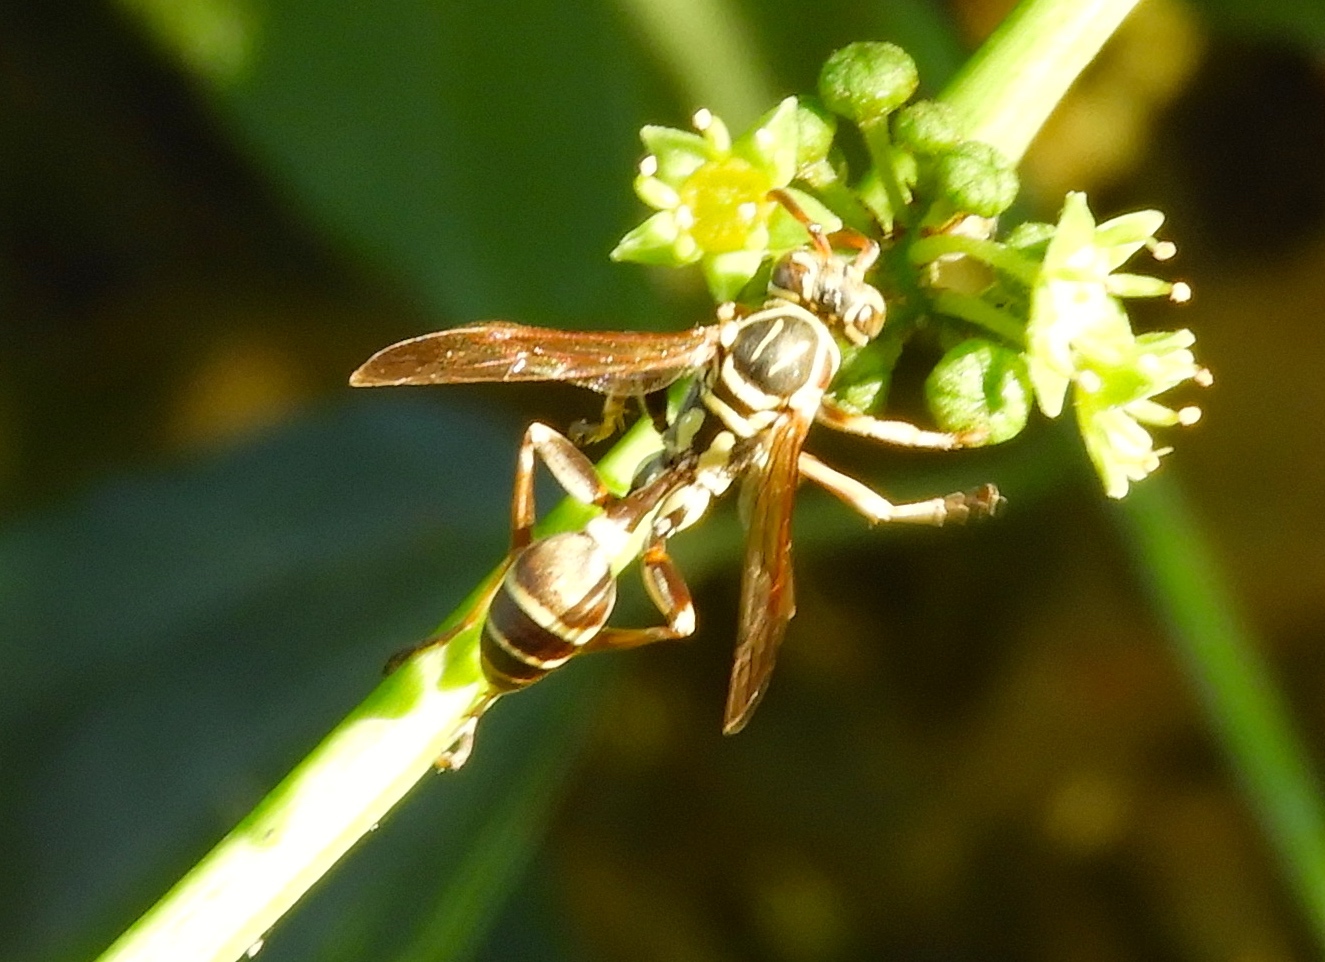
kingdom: Animalia
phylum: Arthropoda
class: Insecta
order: Hymenoptera
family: Vespidae
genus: Mischocyttarus
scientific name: Mischocyttarus mexicanus
